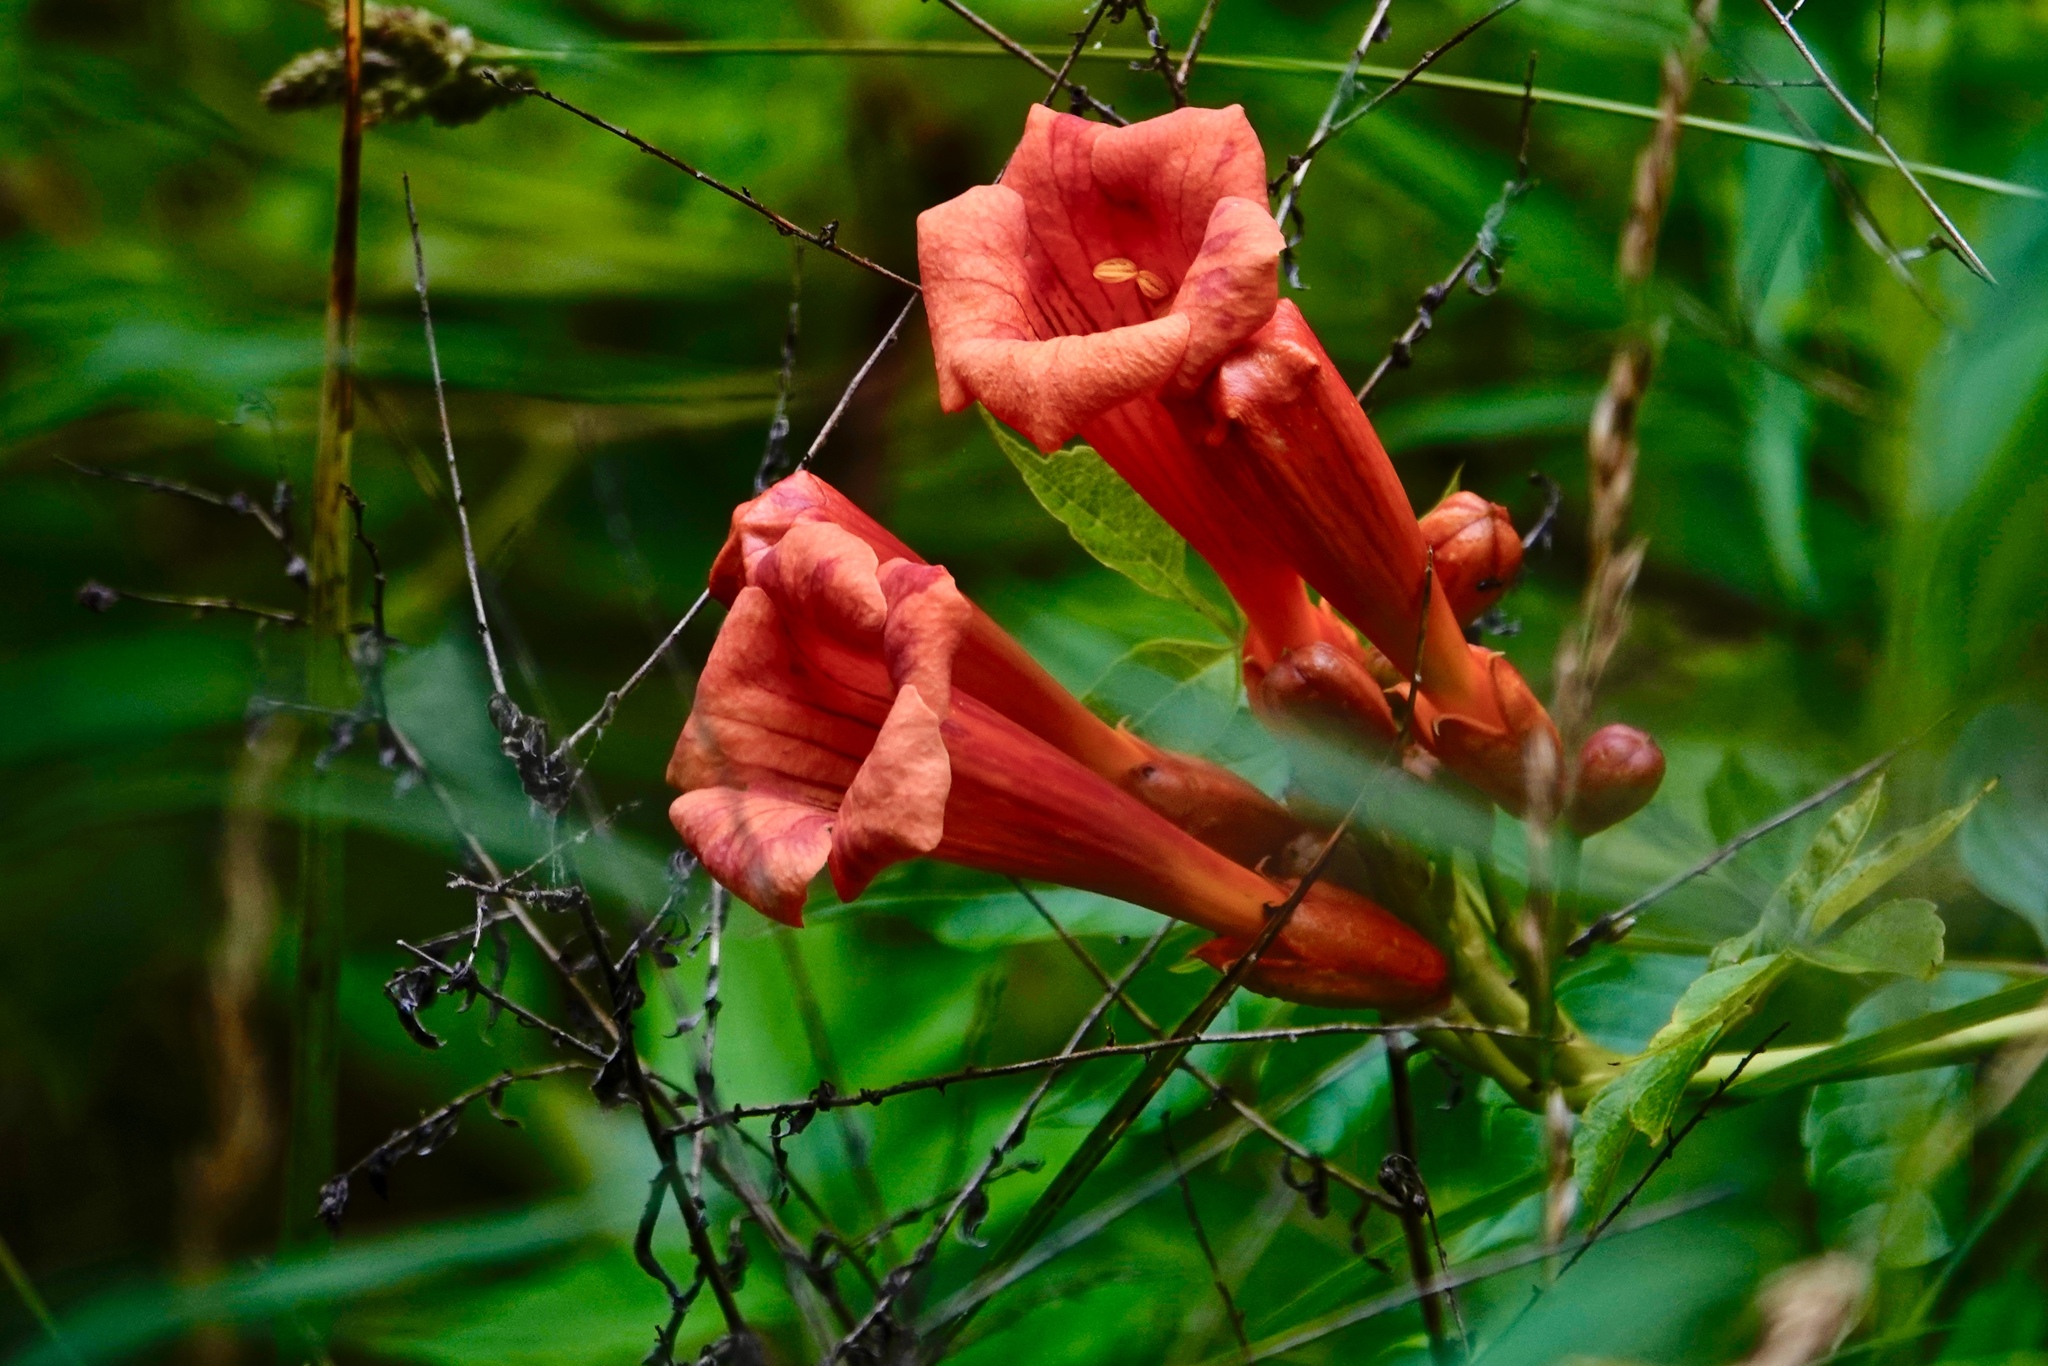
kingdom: Plantae
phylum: Tracheophyta
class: Magnoliopsida
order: Lamiales
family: Bignoniaceae
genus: Campsis
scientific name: Campsis radicans
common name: Trumpet-creeper
